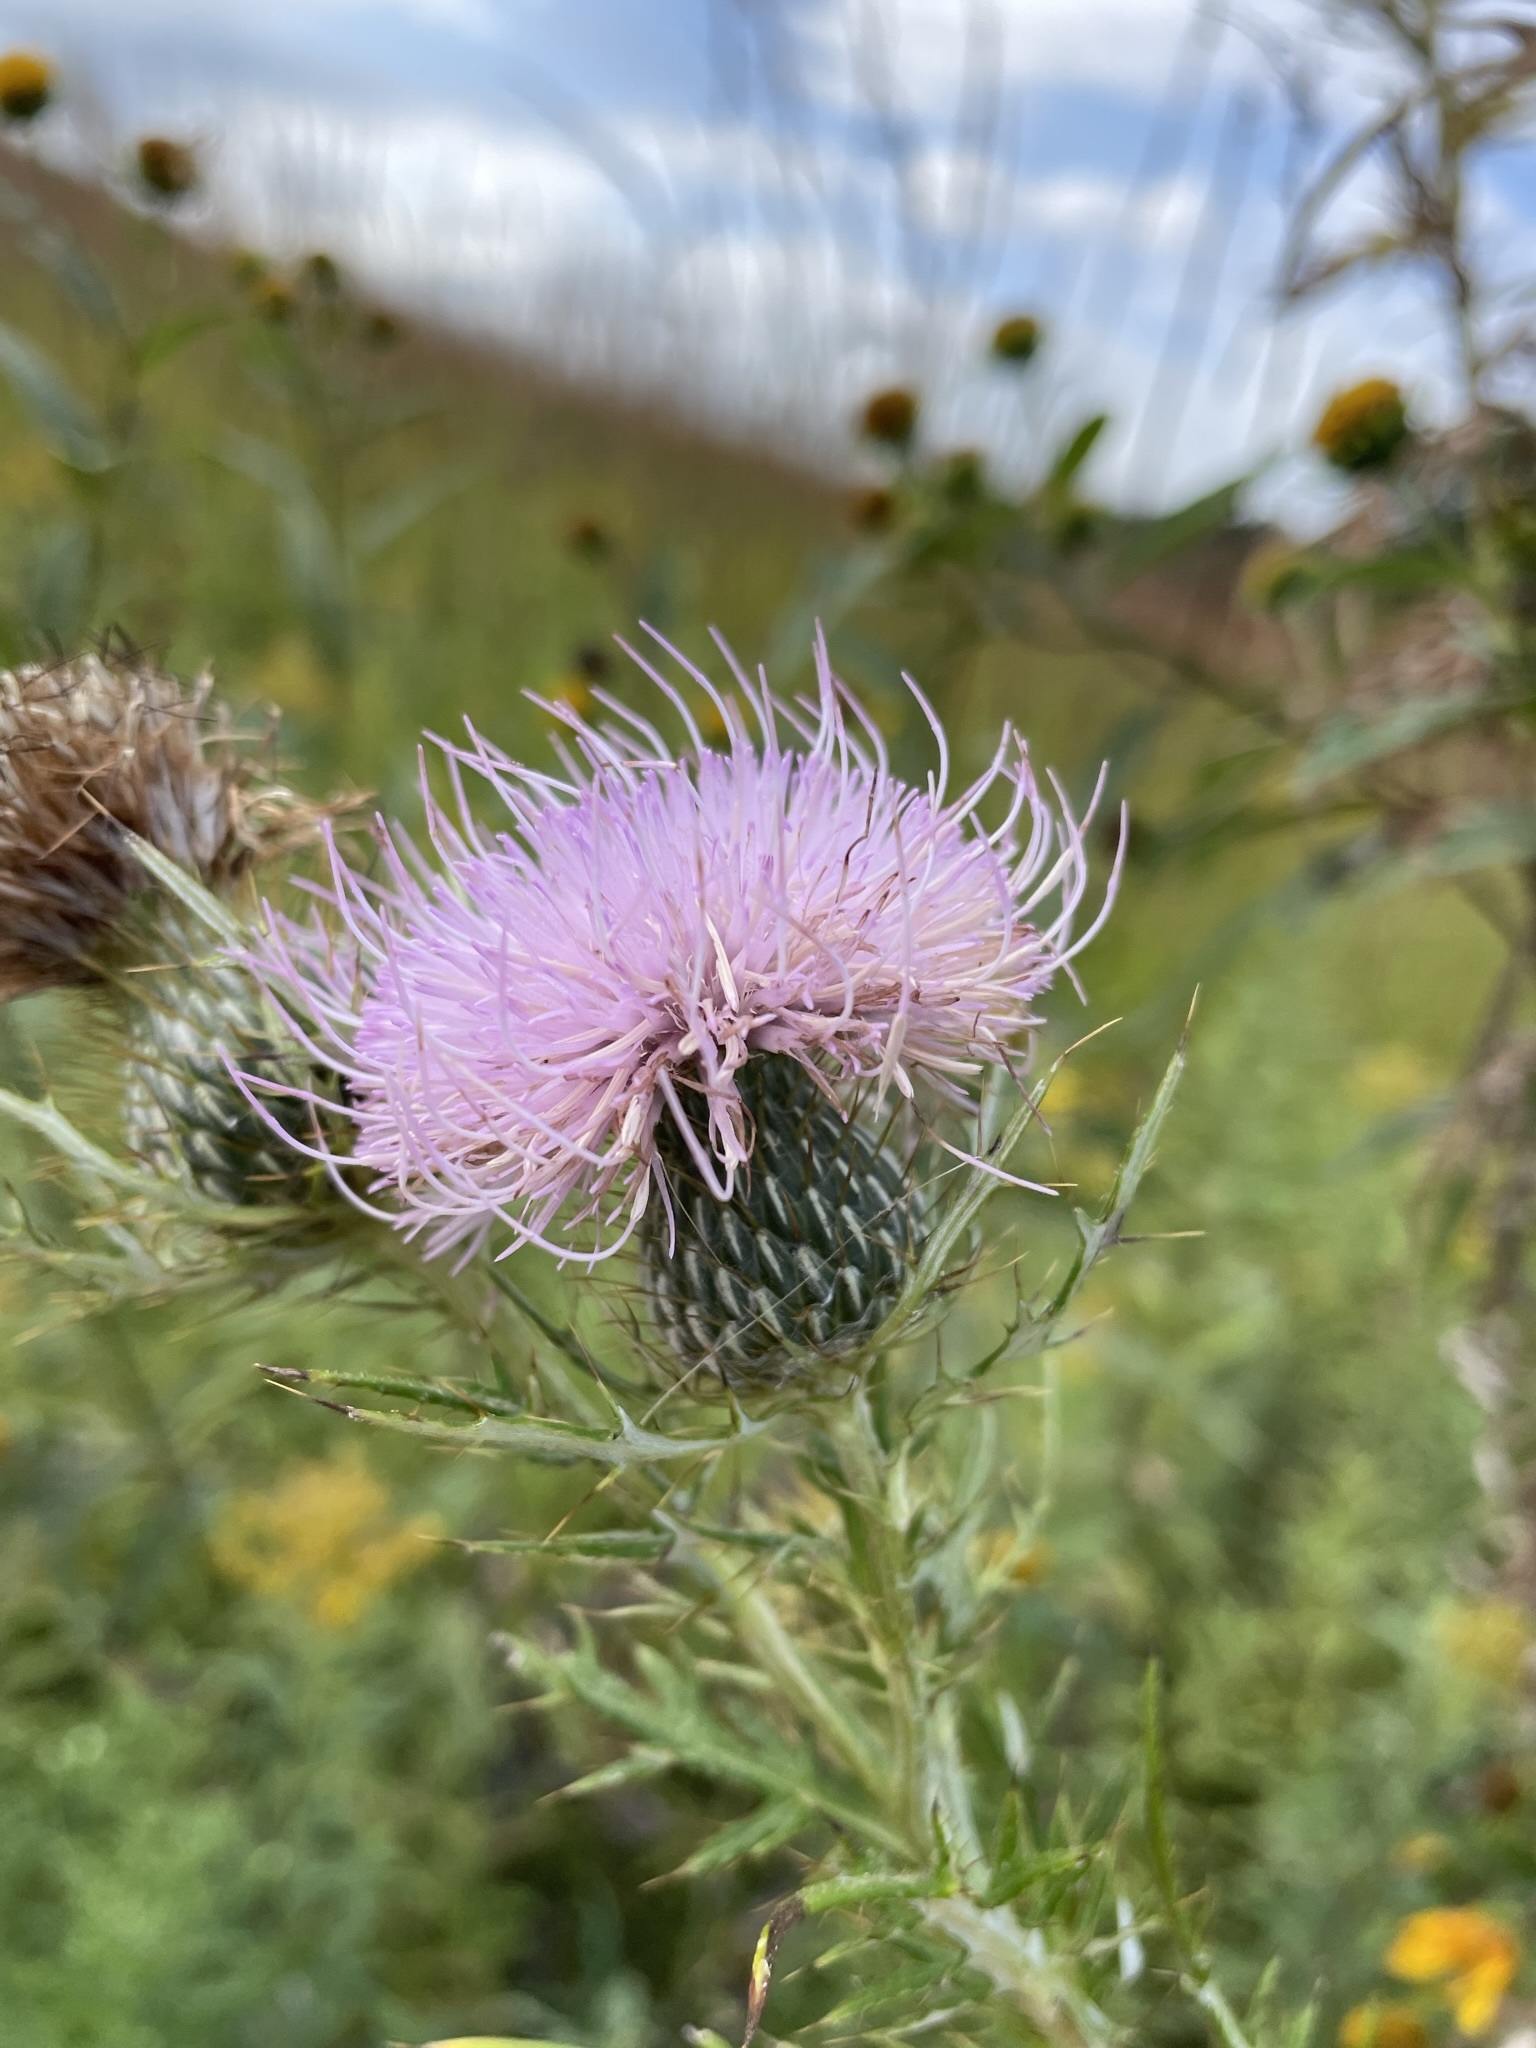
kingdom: Plantae
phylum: Tracheophyta
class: Magnoliopsida
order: Asterales
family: Asteraceae
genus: Cirsium
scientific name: Cirsium discolor
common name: Field thistle
